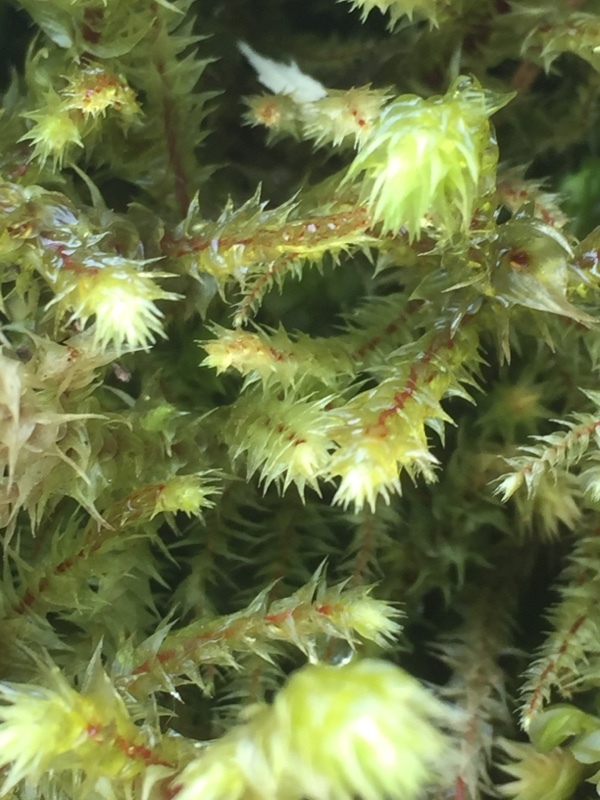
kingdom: Plantae
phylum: Bryophyta
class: Bryopsida
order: Hypnales
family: Hylocomiaceae
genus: Hylocomiadelphus
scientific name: Hylocomiadelphus triquetrus
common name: Rough goose neck moss
